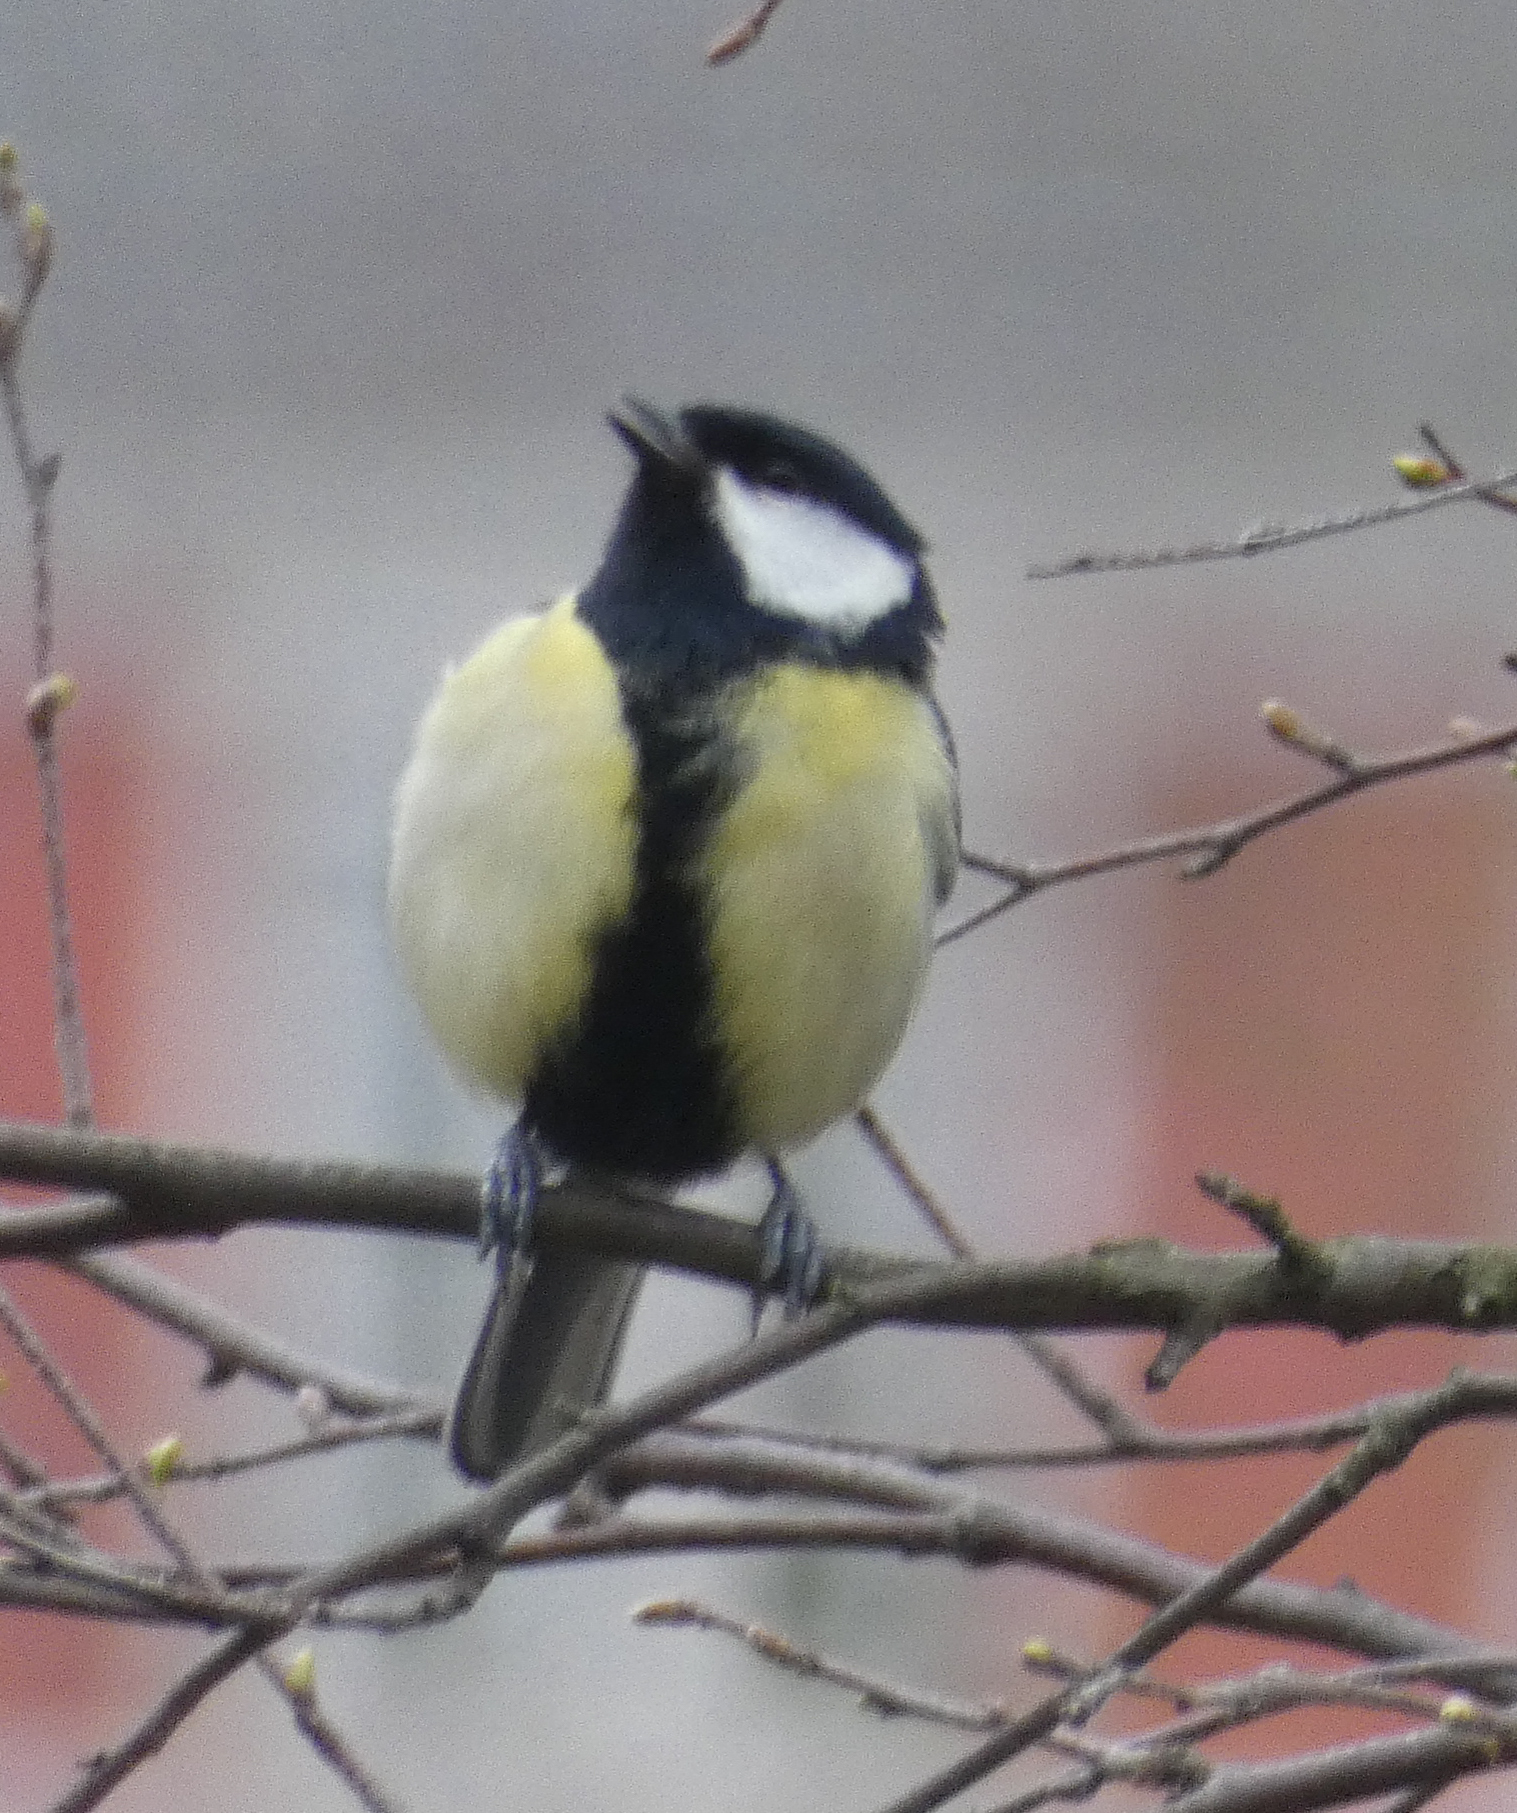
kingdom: Animalia
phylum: Chordata
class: Aves
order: Passeriformes
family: Paridae
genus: Parus
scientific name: Parus major
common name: Great tit
